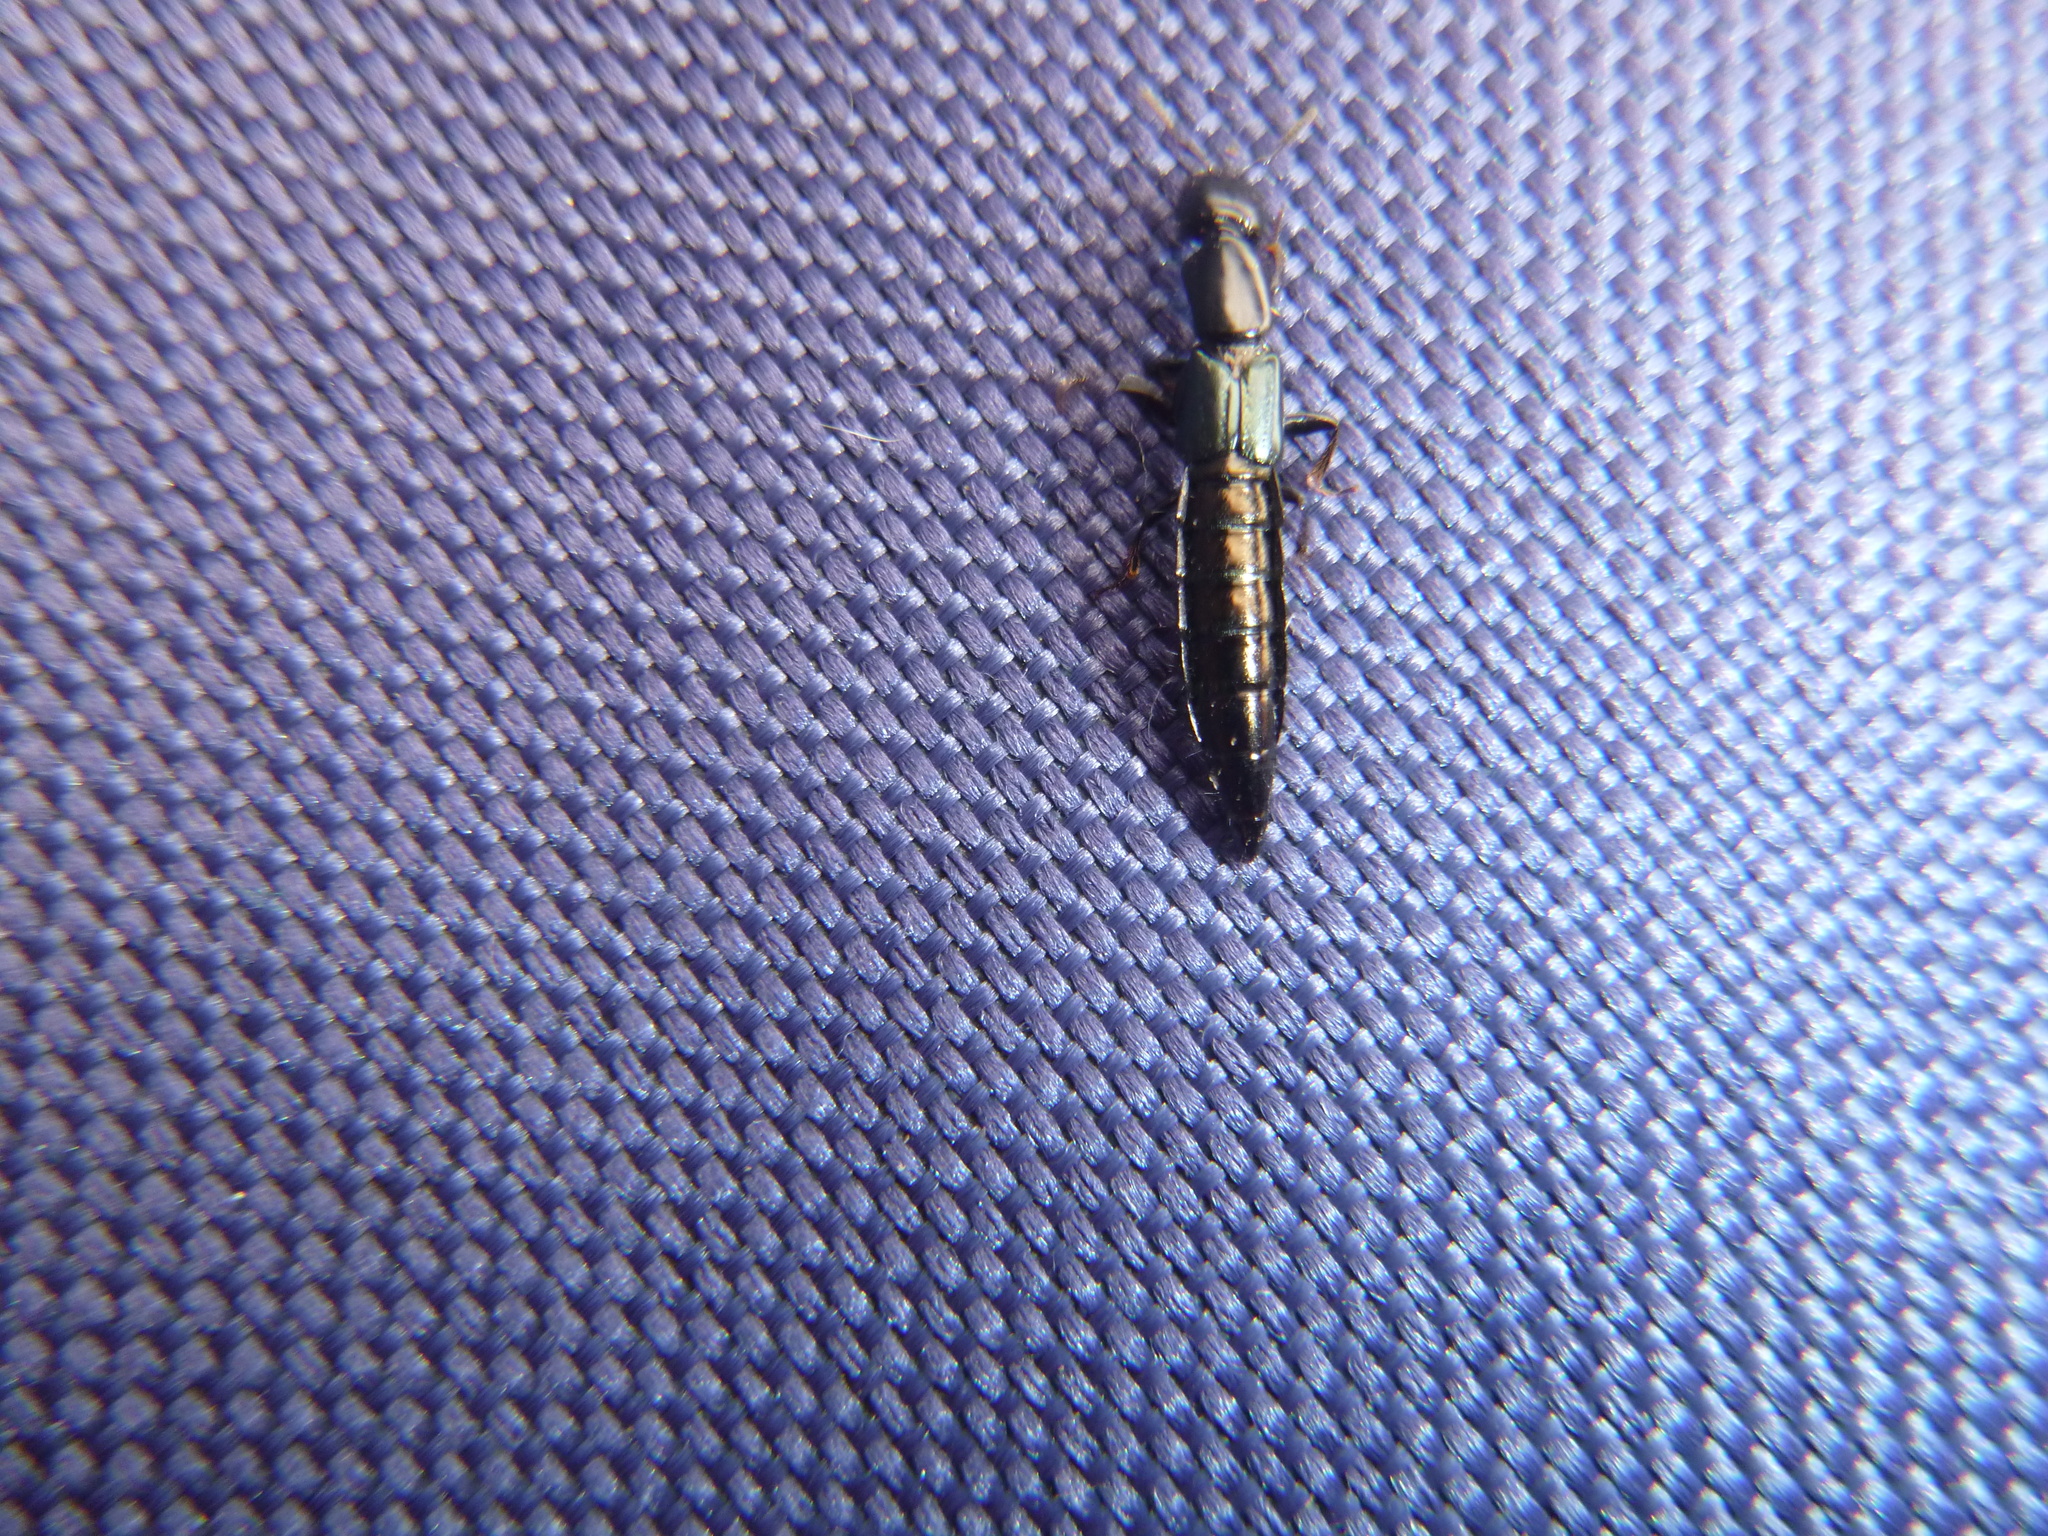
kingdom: Animalia
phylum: Arthropoda
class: Insecta
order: Coleoptera
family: Staphylinidae
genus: Thyreocephalus
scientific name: Thyreocephalus orthodoxus
